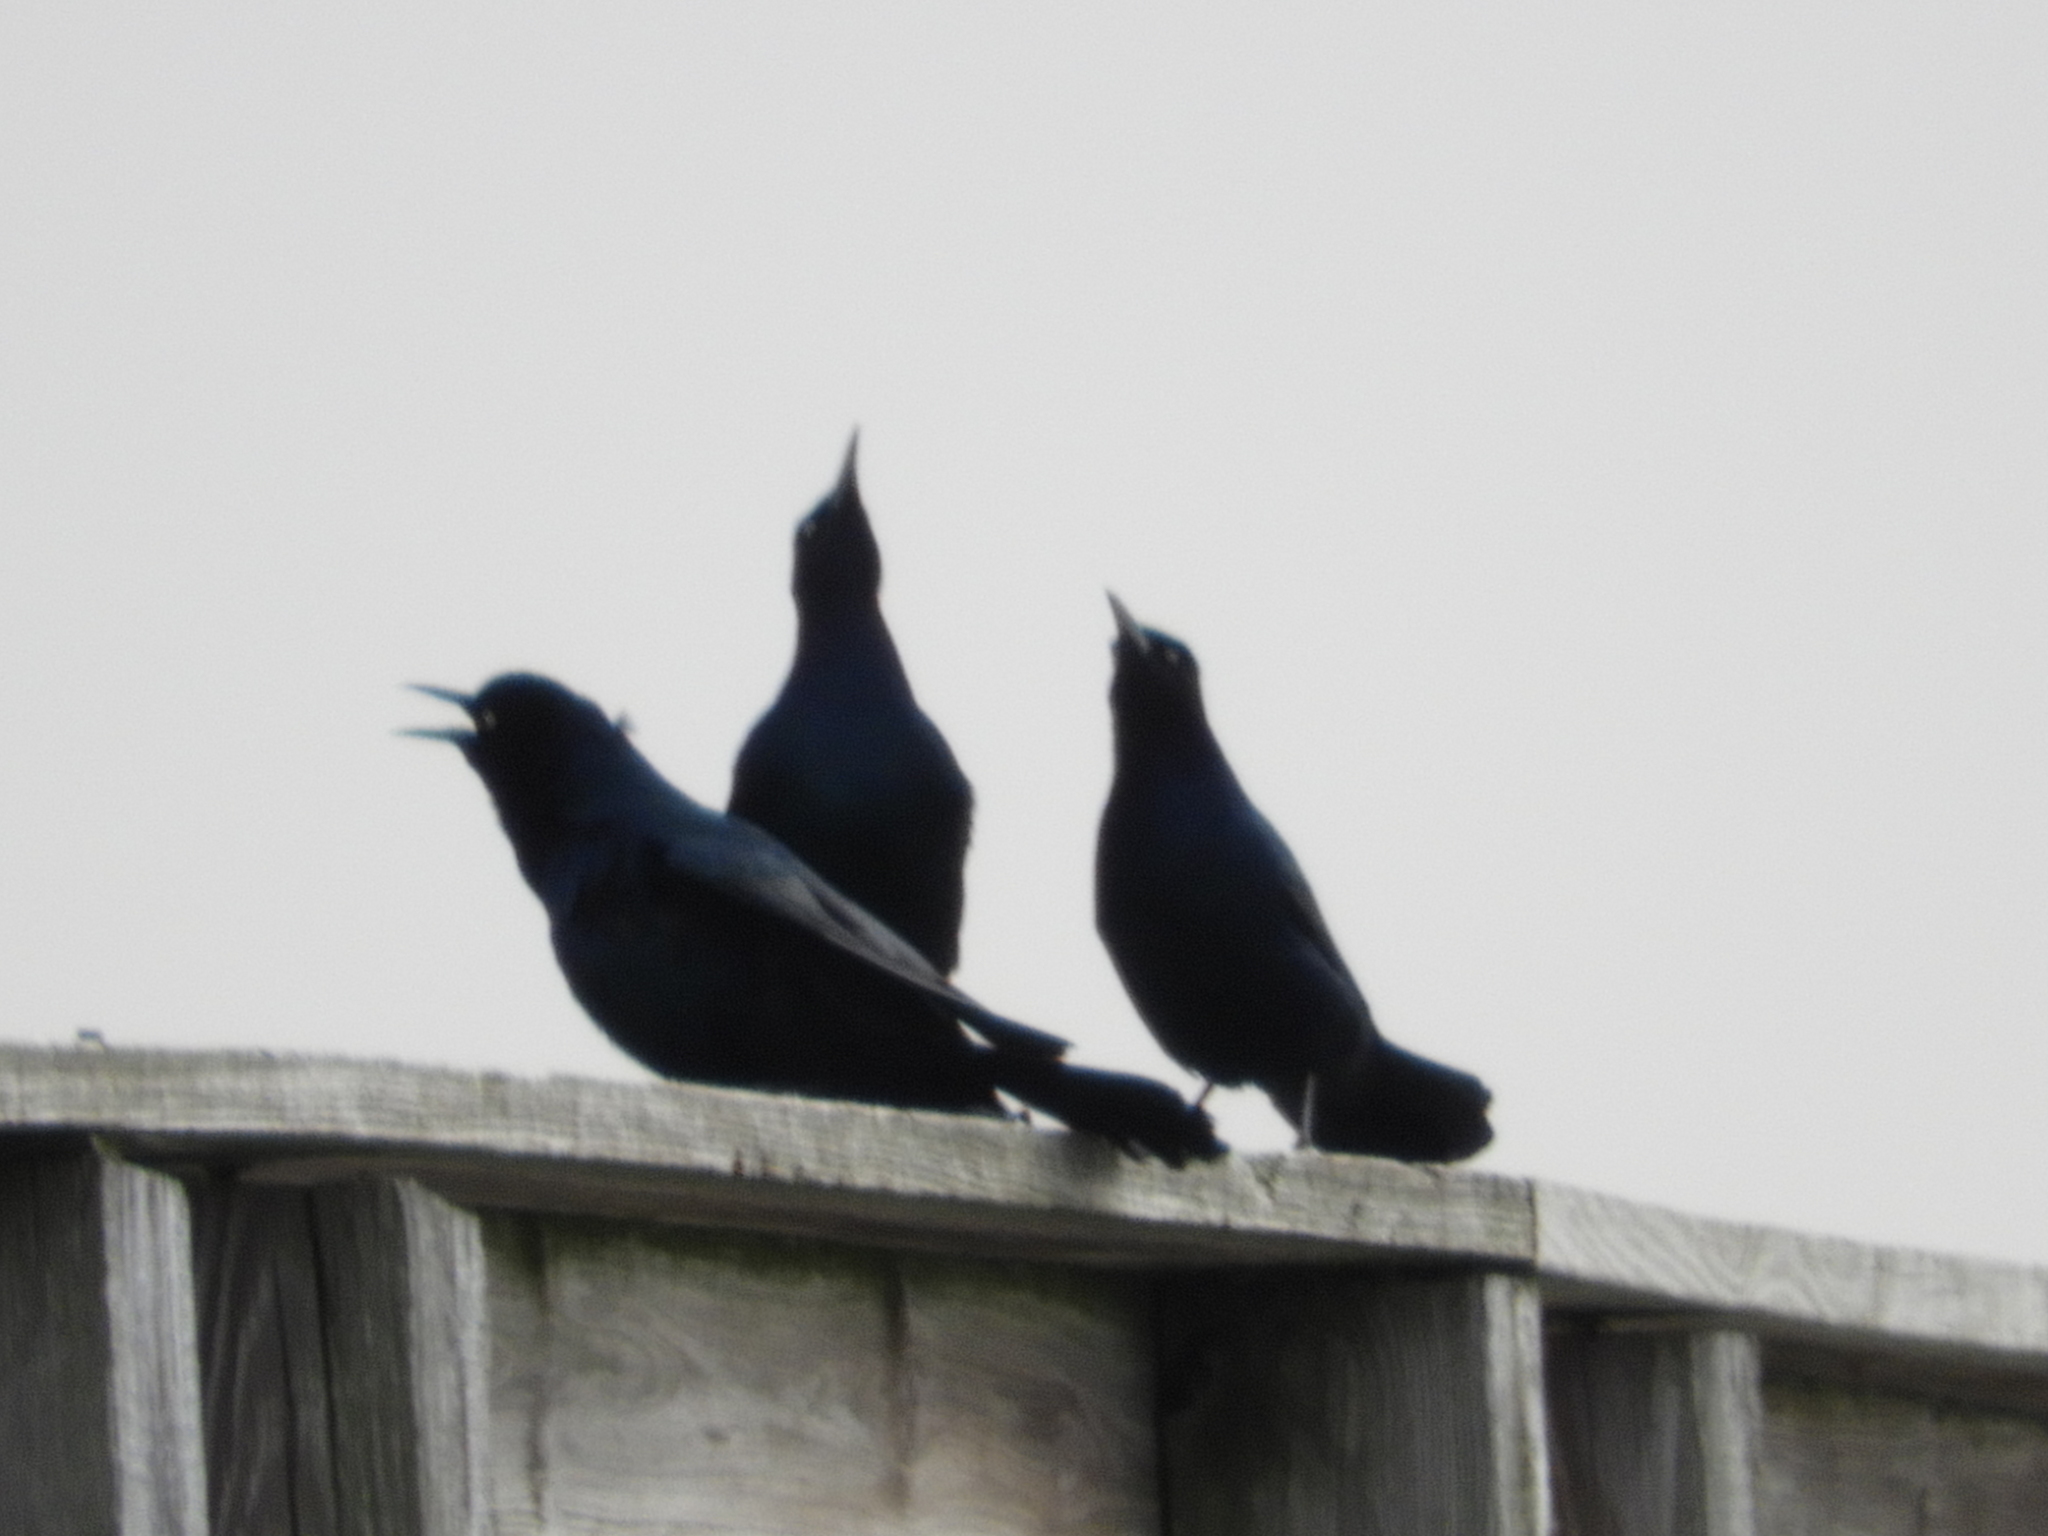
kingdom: Animalia
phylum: Chordata
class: Aves
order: Passeriformes
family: Icteridae
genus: Quiscalus
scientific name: Quiscalus major
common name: Boat-tailed grackle
